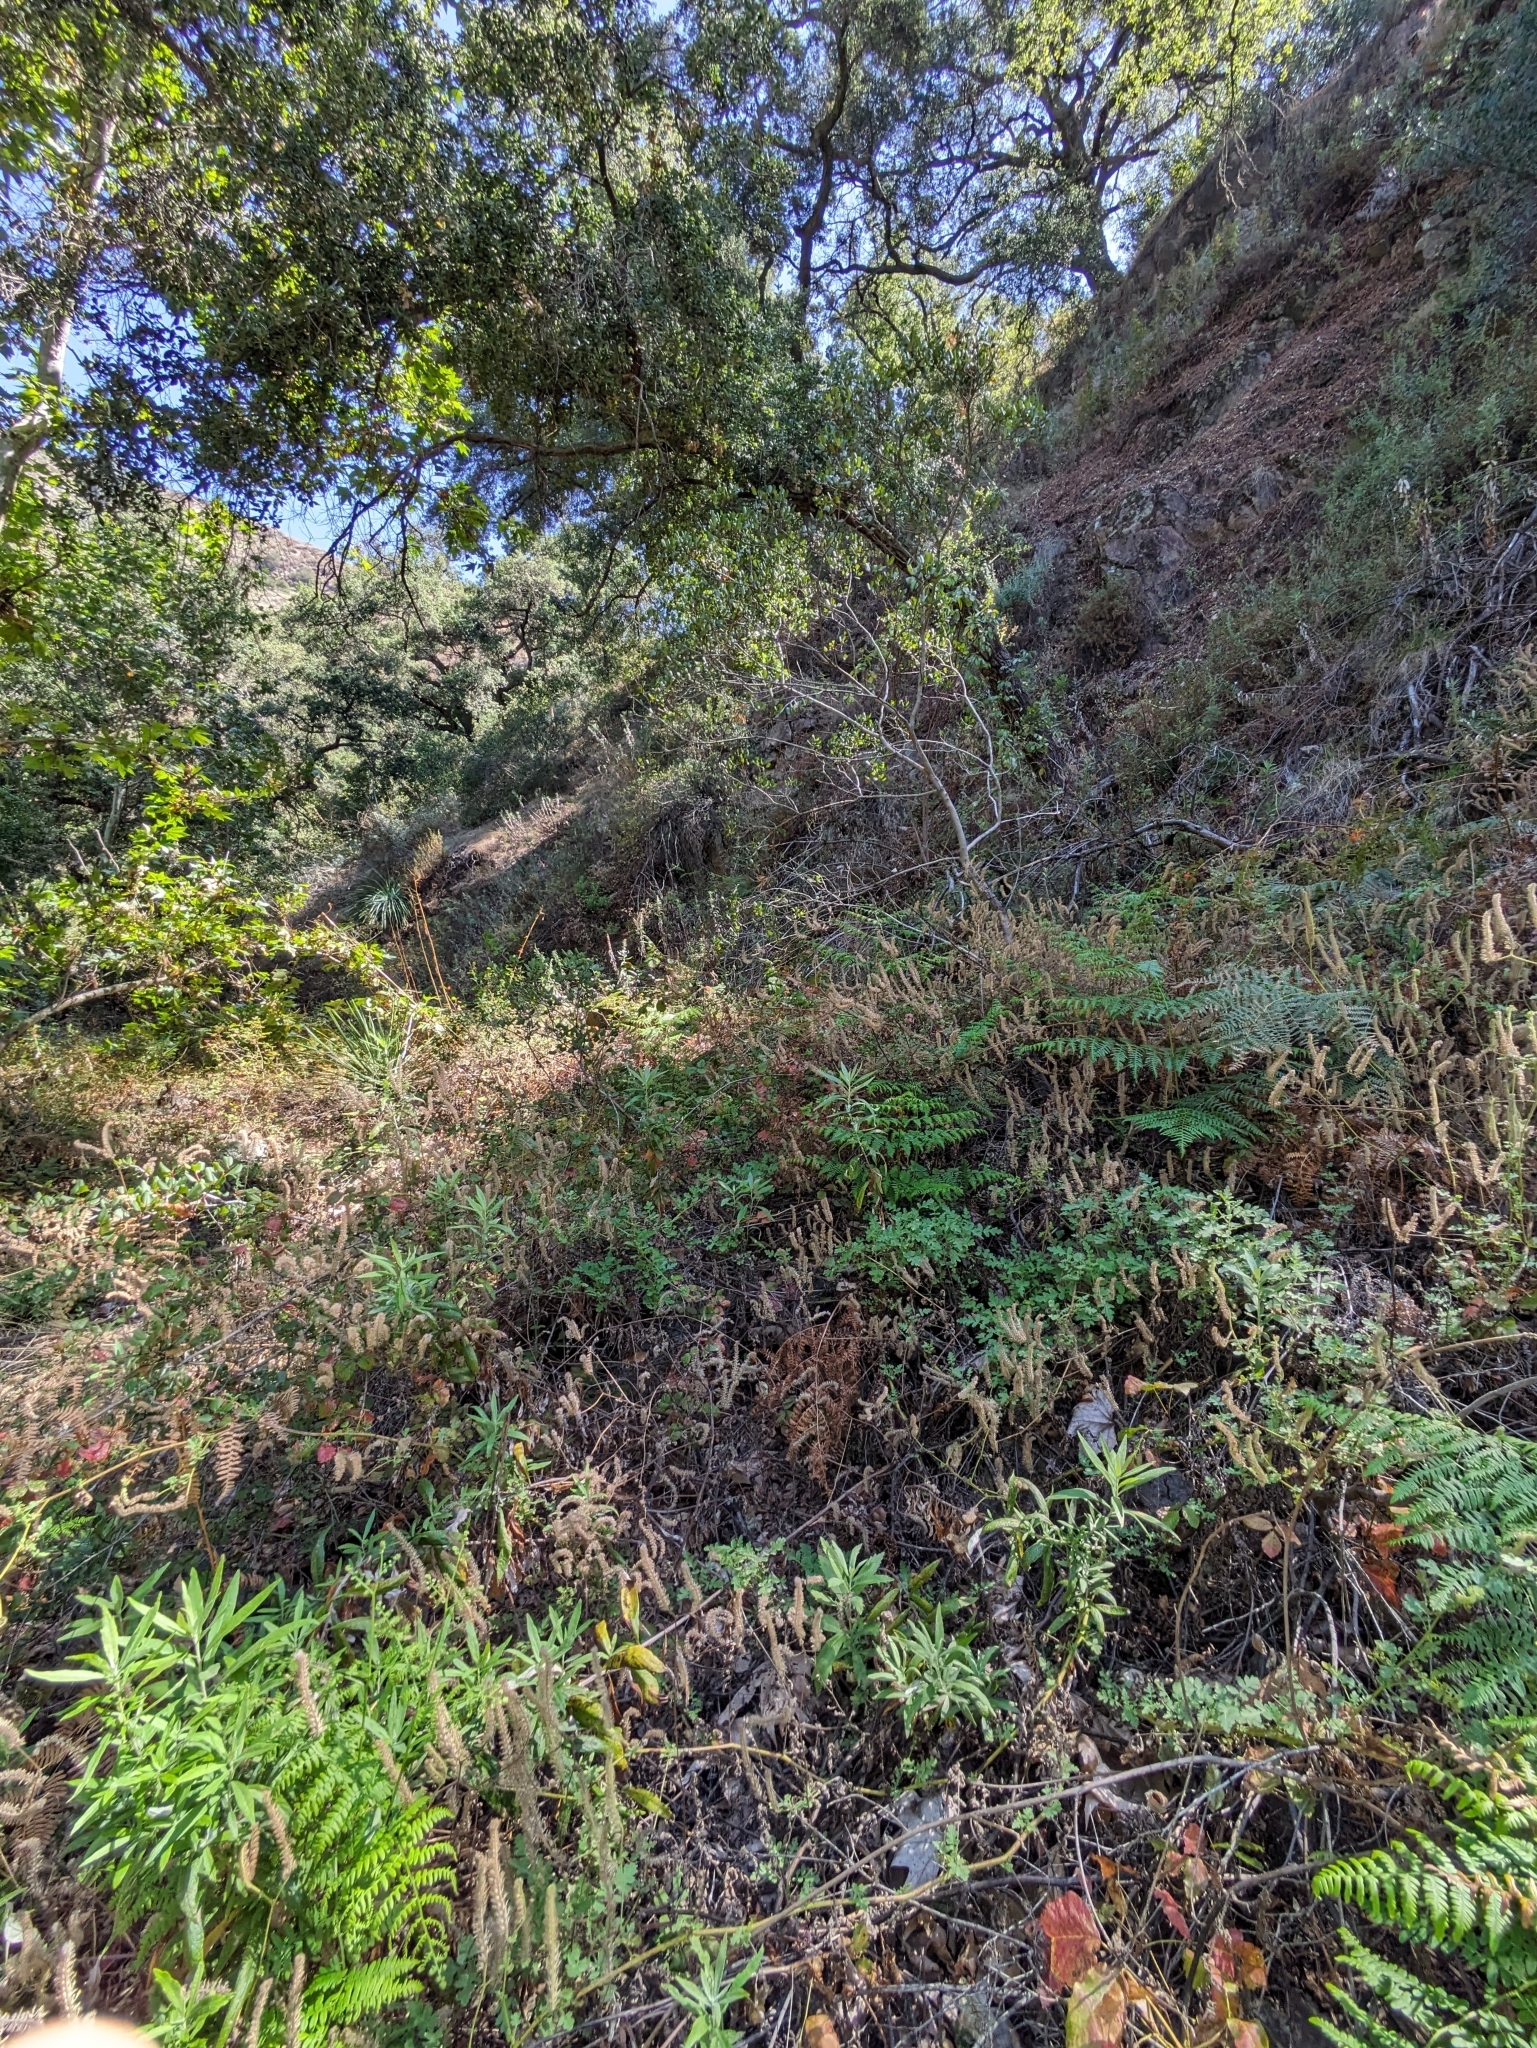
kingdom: Plantae
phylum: Tracheophyta
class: Polypodiopsida
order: Polypodiales
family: Dennstaedtiaceae
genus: Pteridium
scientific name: Pteridium aquilinum
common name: Bracken
